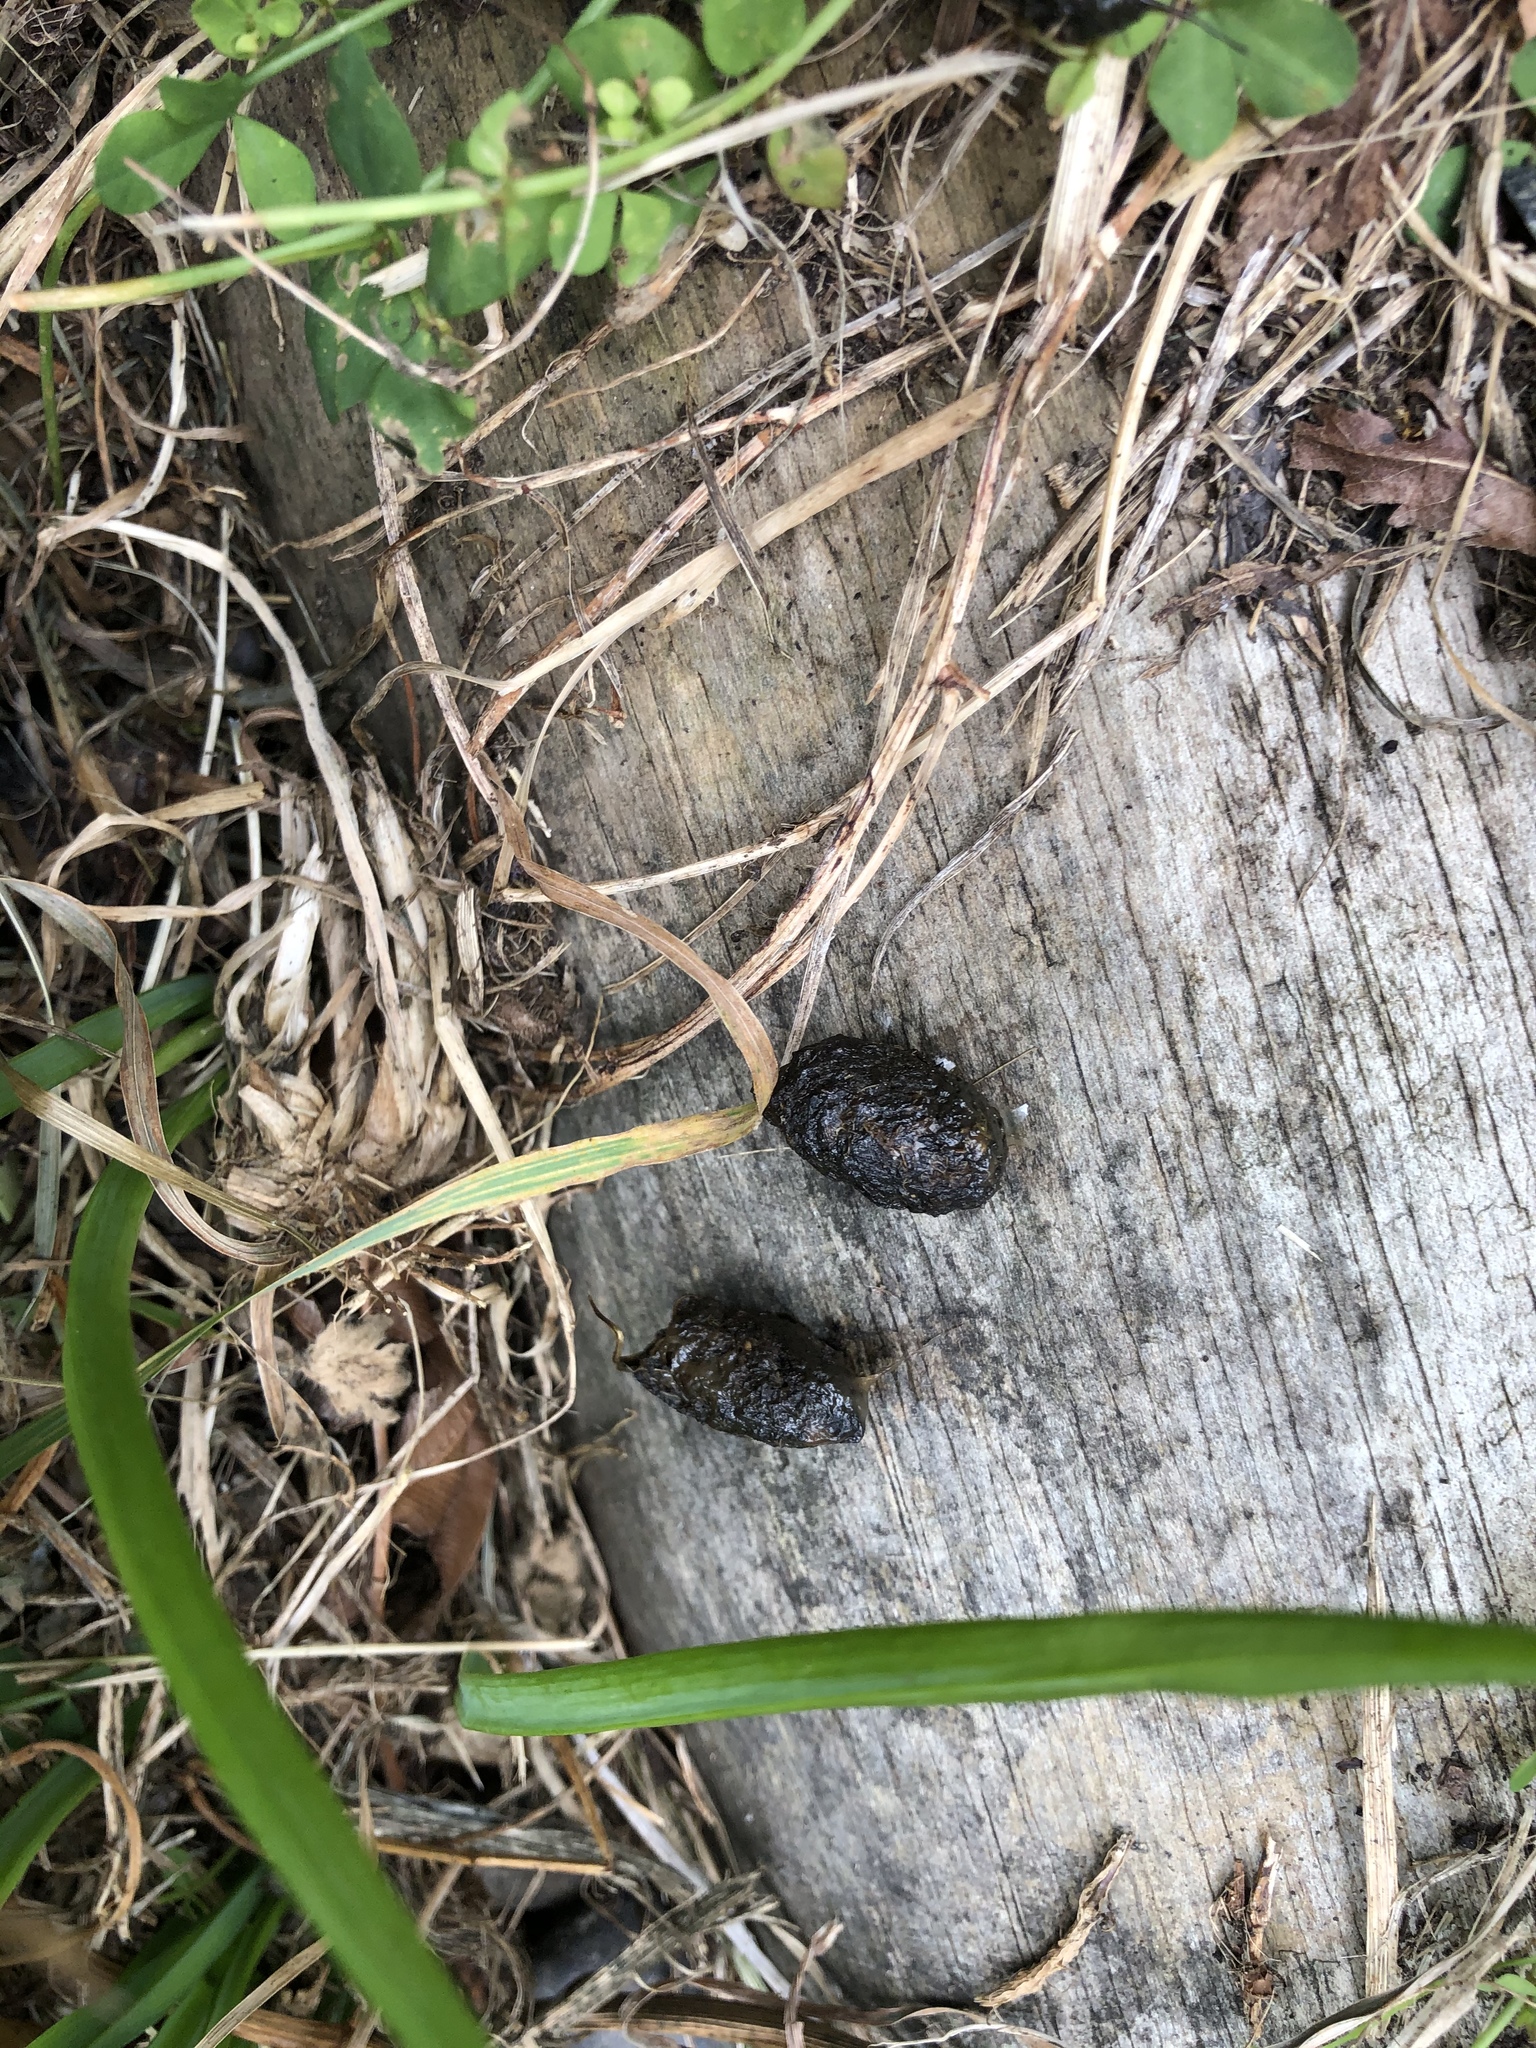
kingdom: Animalia
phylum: Chordata
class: Mammalia
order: Erinaceomorpha
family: Erinaceidae
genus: Erinaceus
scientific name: Erinaceus europaeus
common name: West european hedgehog
